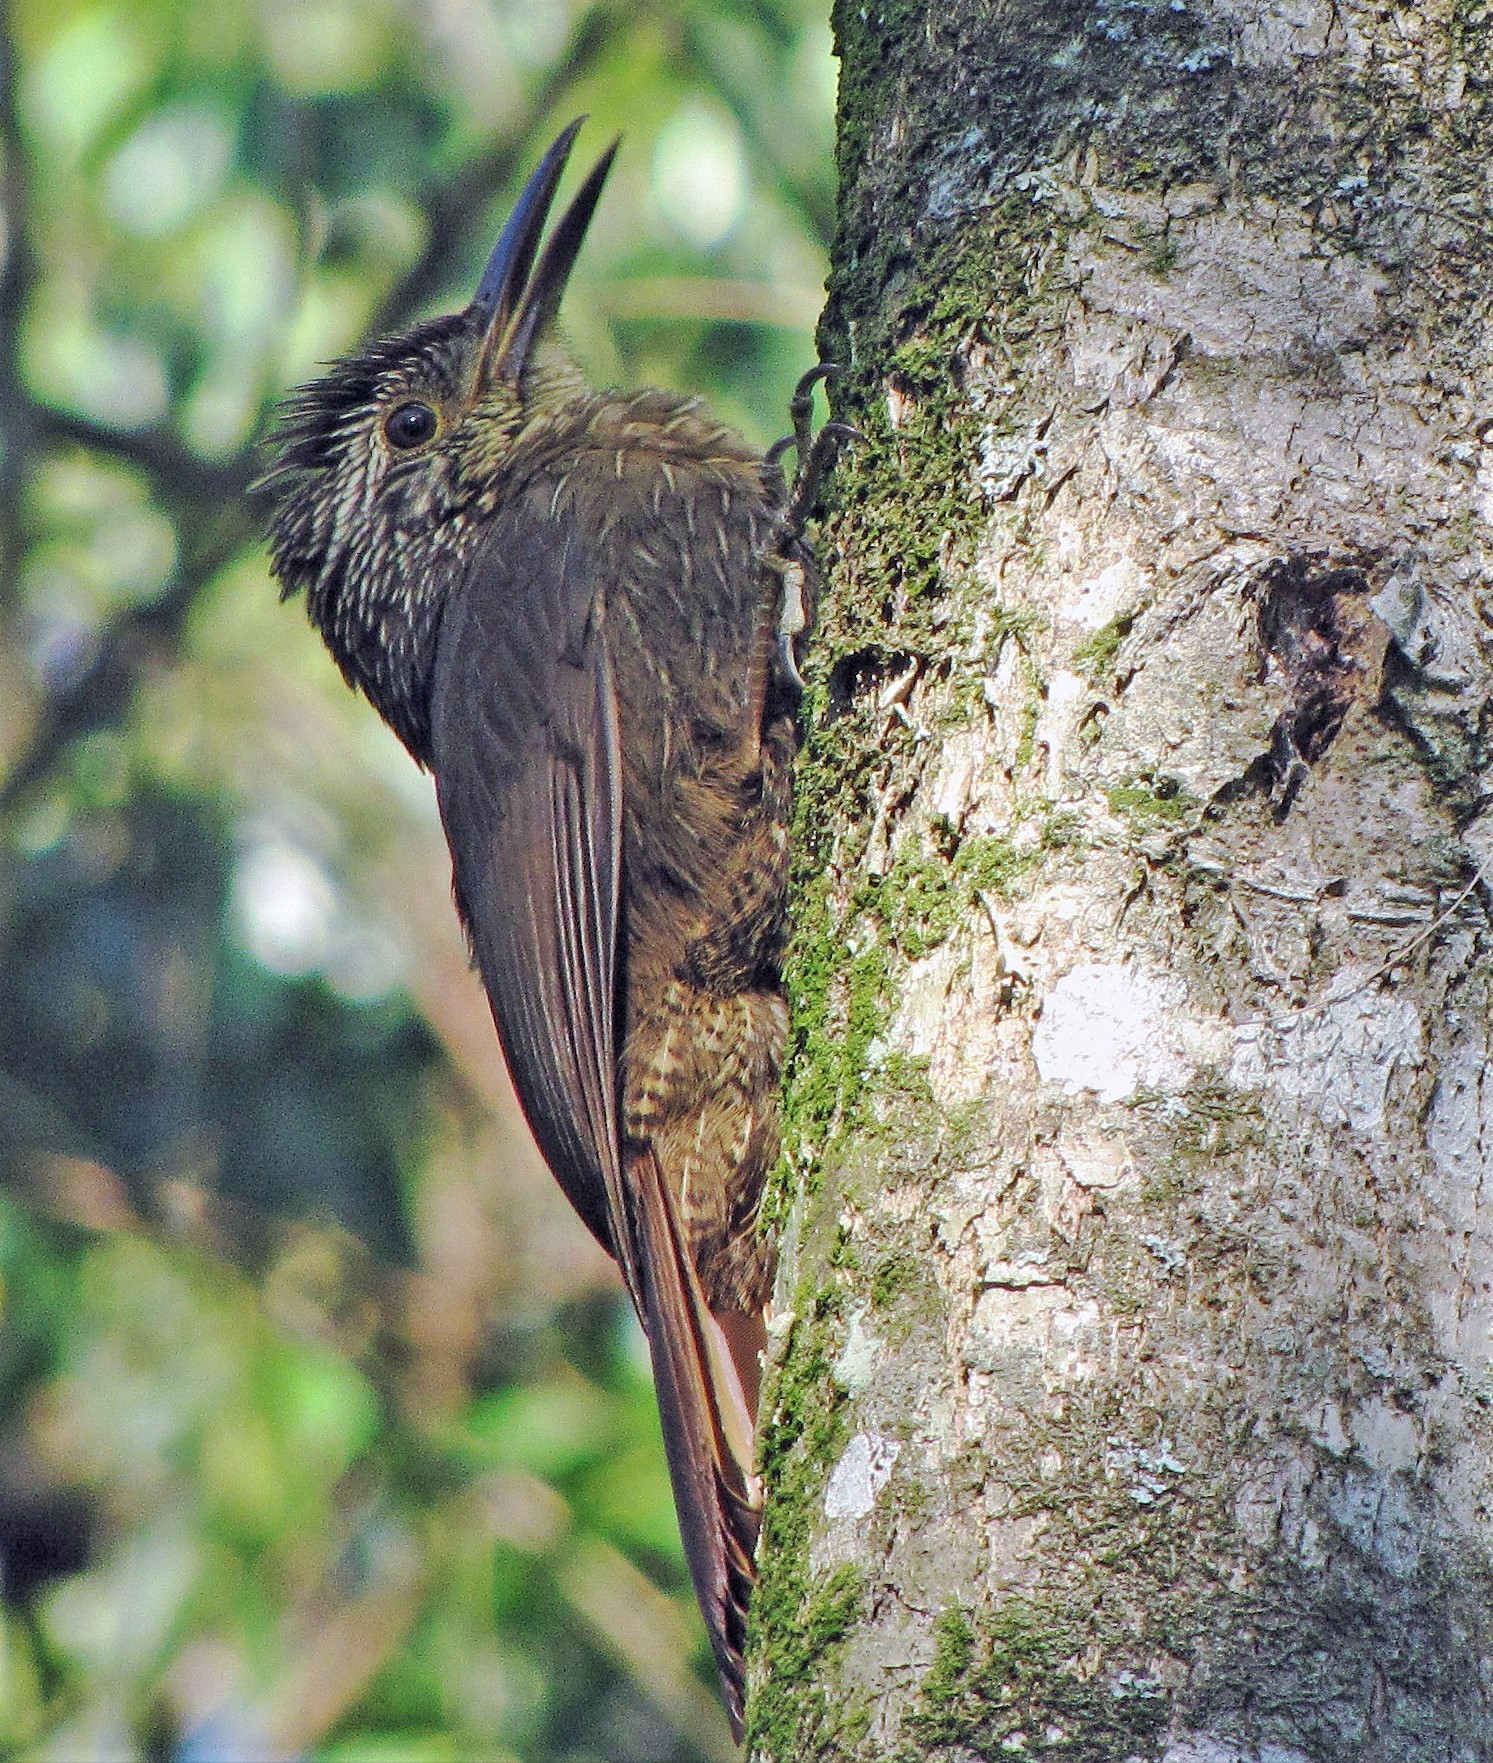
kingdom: Animalia
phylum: Chordata
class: Aves
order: Passeriformes
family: Furnariidae
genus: Dendrocolaptes
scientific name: Dendrocolaptes platyrostris
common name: Planalto woodcreeper
